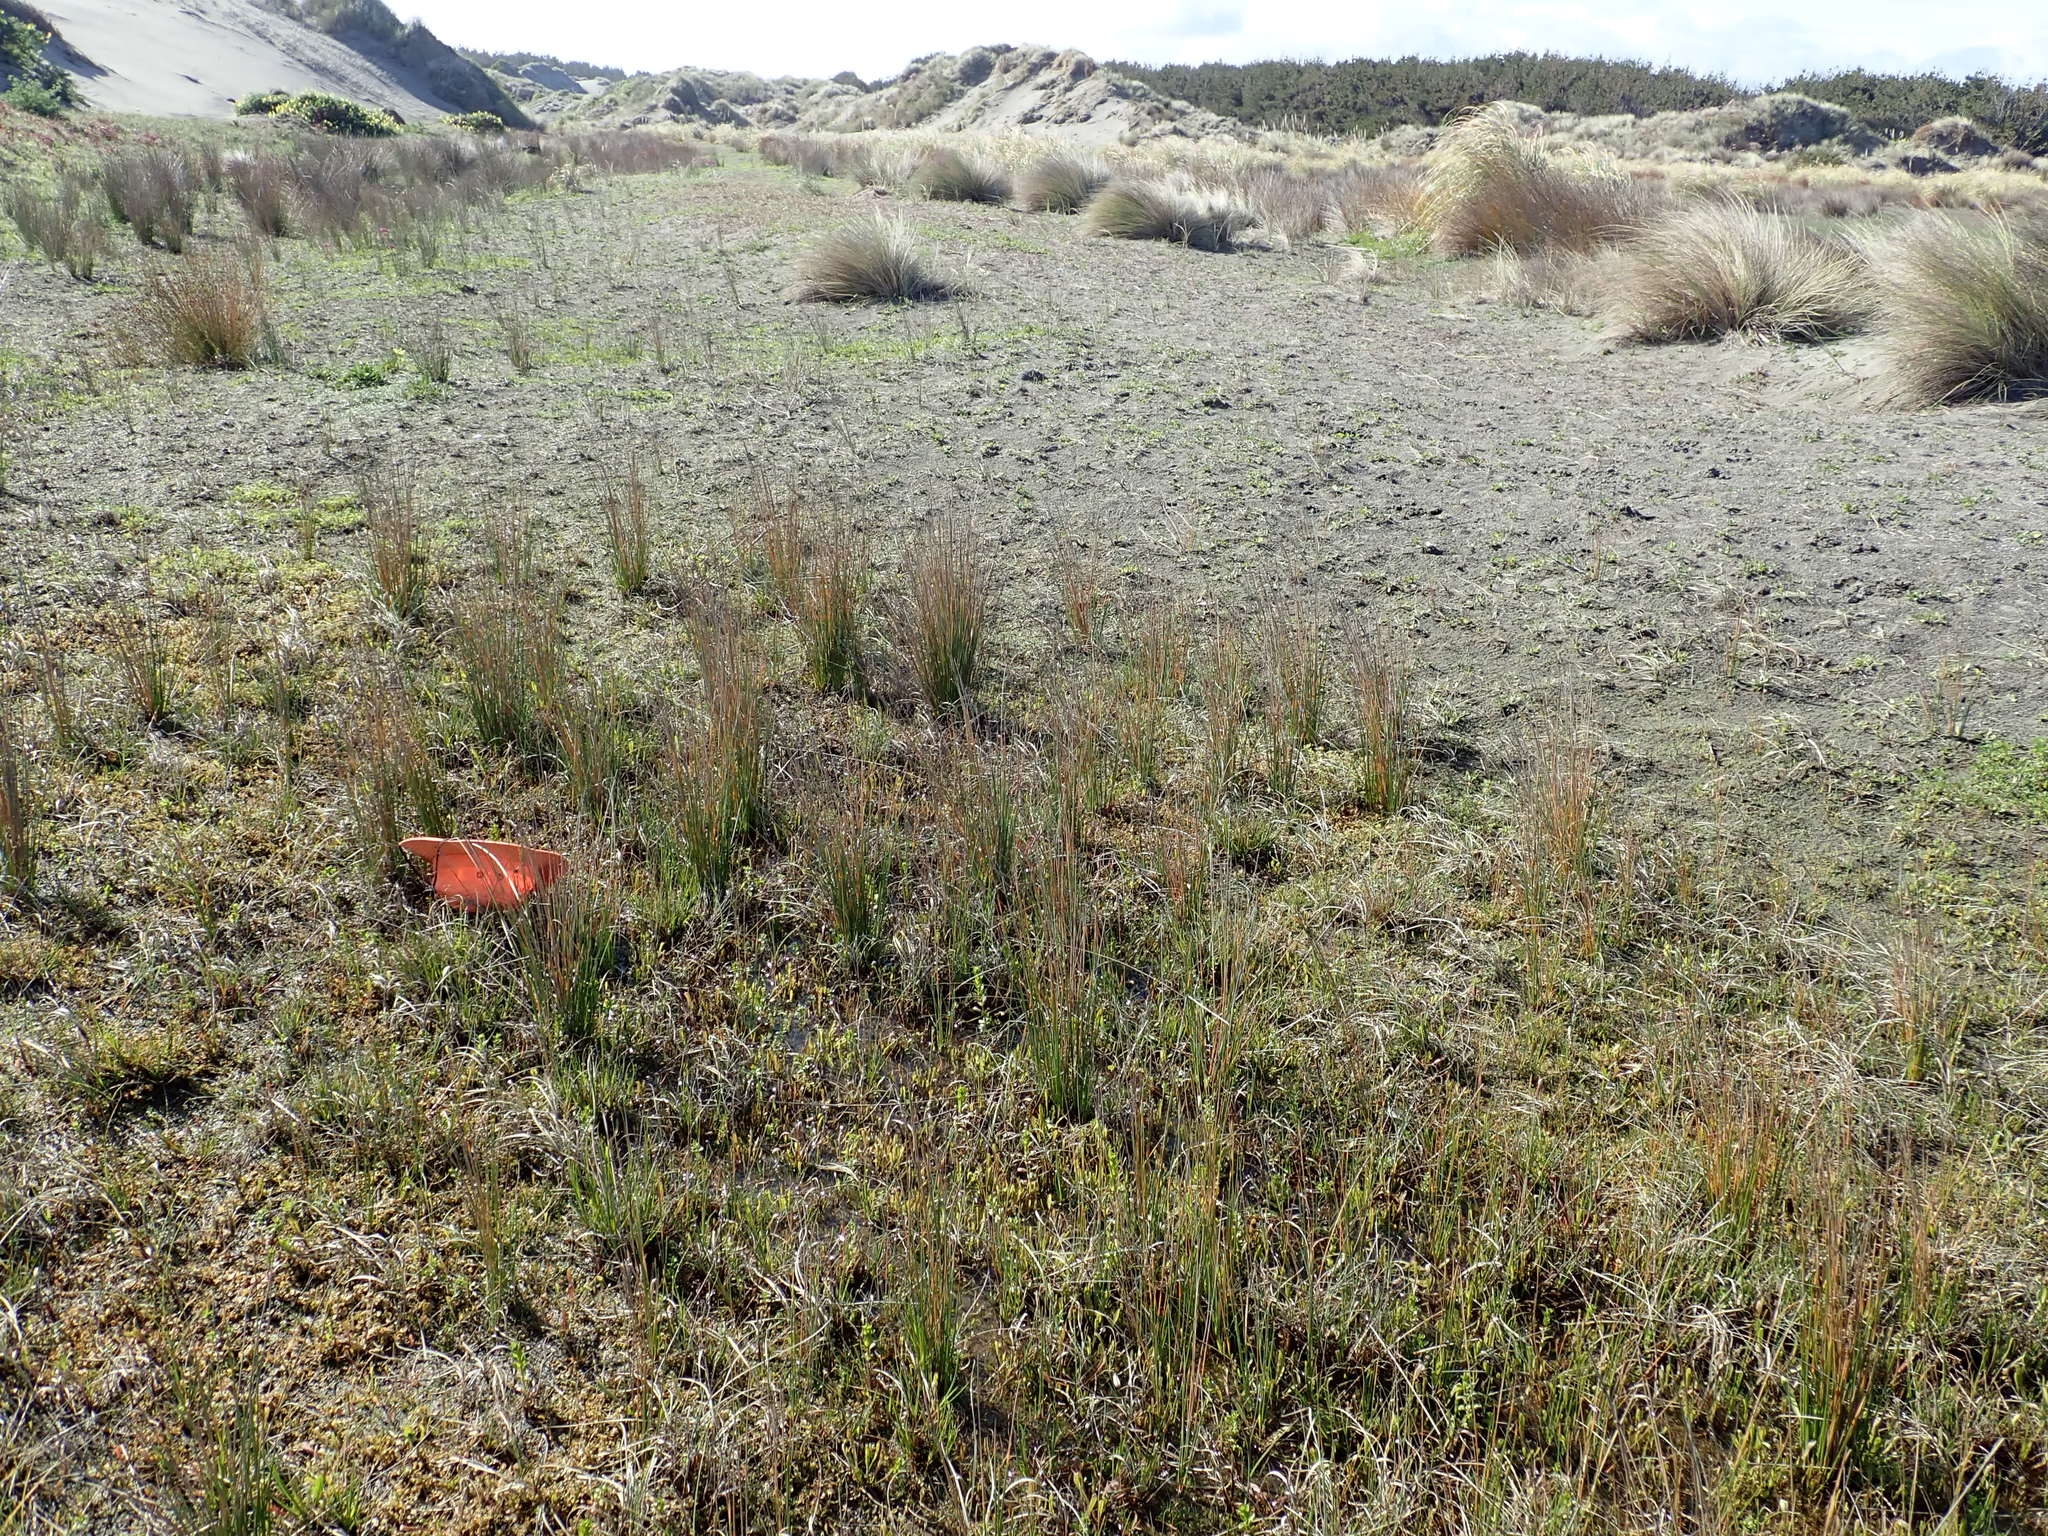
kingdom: Plantae
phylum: Tracheophyta
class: Magnoliopsida
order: Myrtales
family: Onagraceae
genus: Epilobium
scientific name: Epilobium billardiereanum
